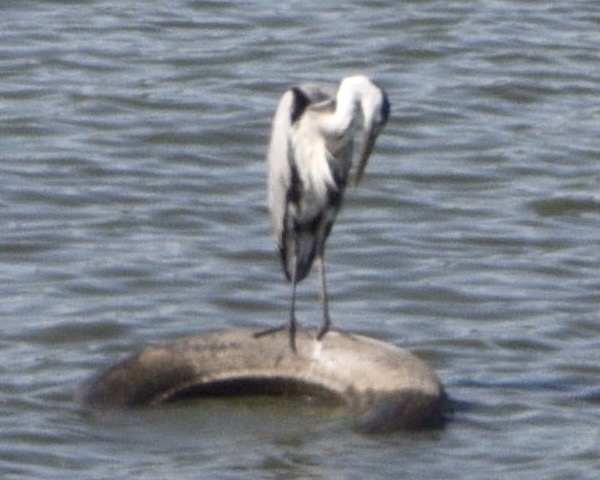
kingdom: Animalia
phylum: Chordata
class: Aves
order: Pelecaniformes
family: Ardeidae
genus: Ardea
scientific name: Ardea cinerea
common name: Grey heron
